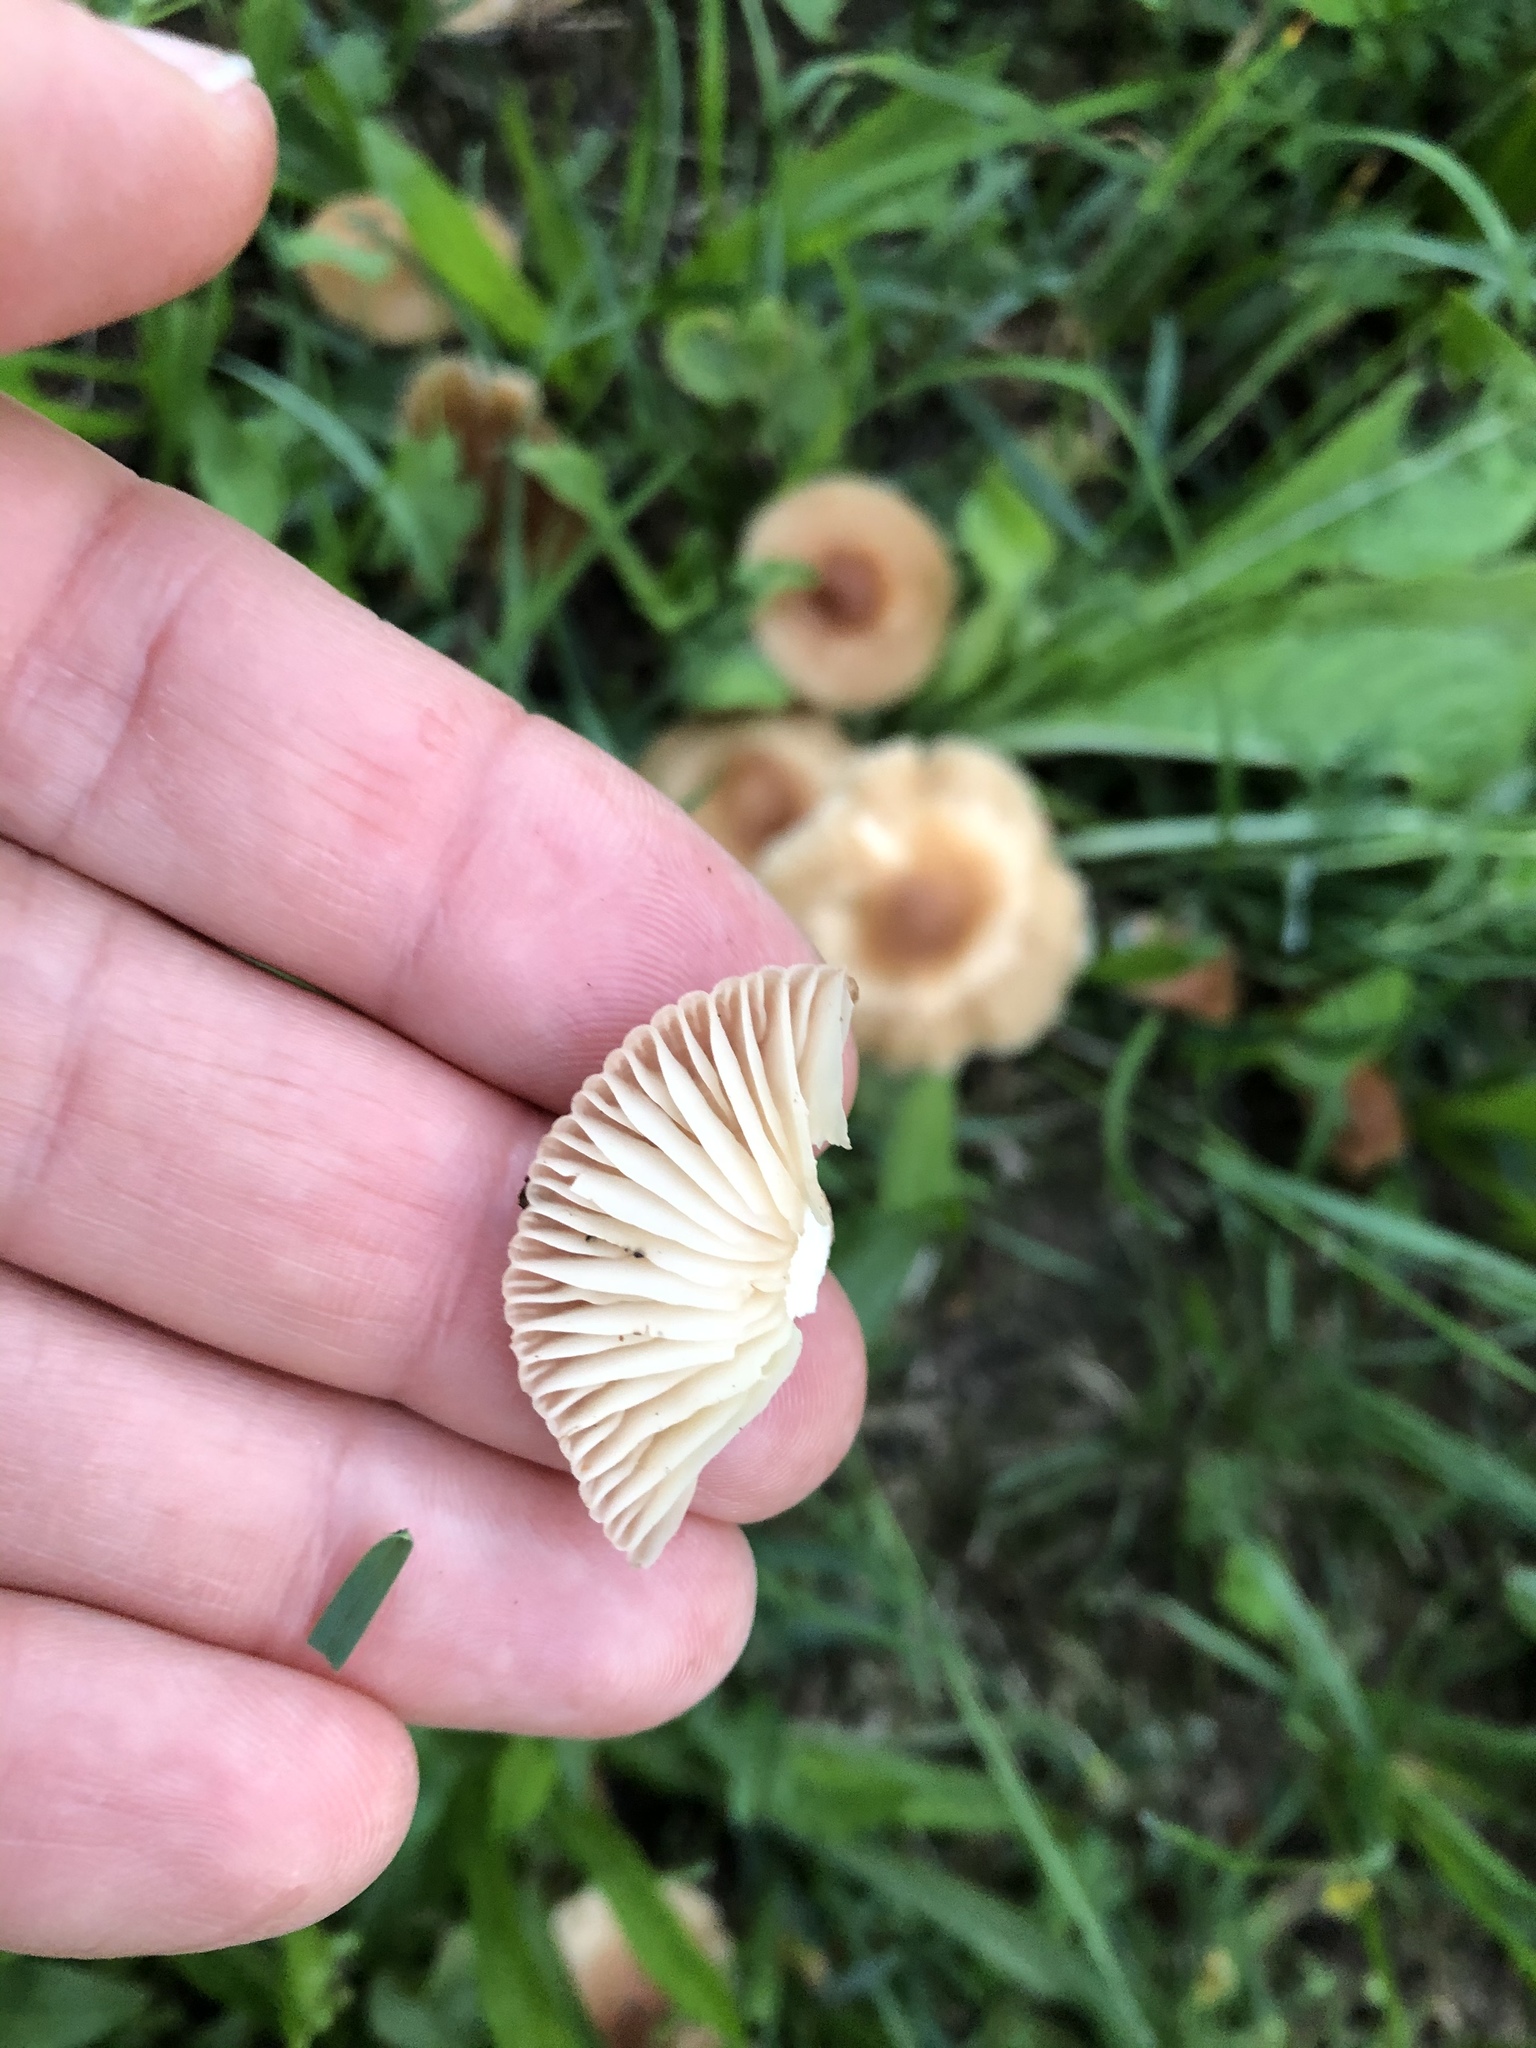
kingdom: Fungi
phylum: Basidiomycota
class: Agaricomycetes
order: Agaricales
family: Marasmiaceae
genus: Marasmius
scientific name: Marasmius oreades
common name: Fairy ring champignon
